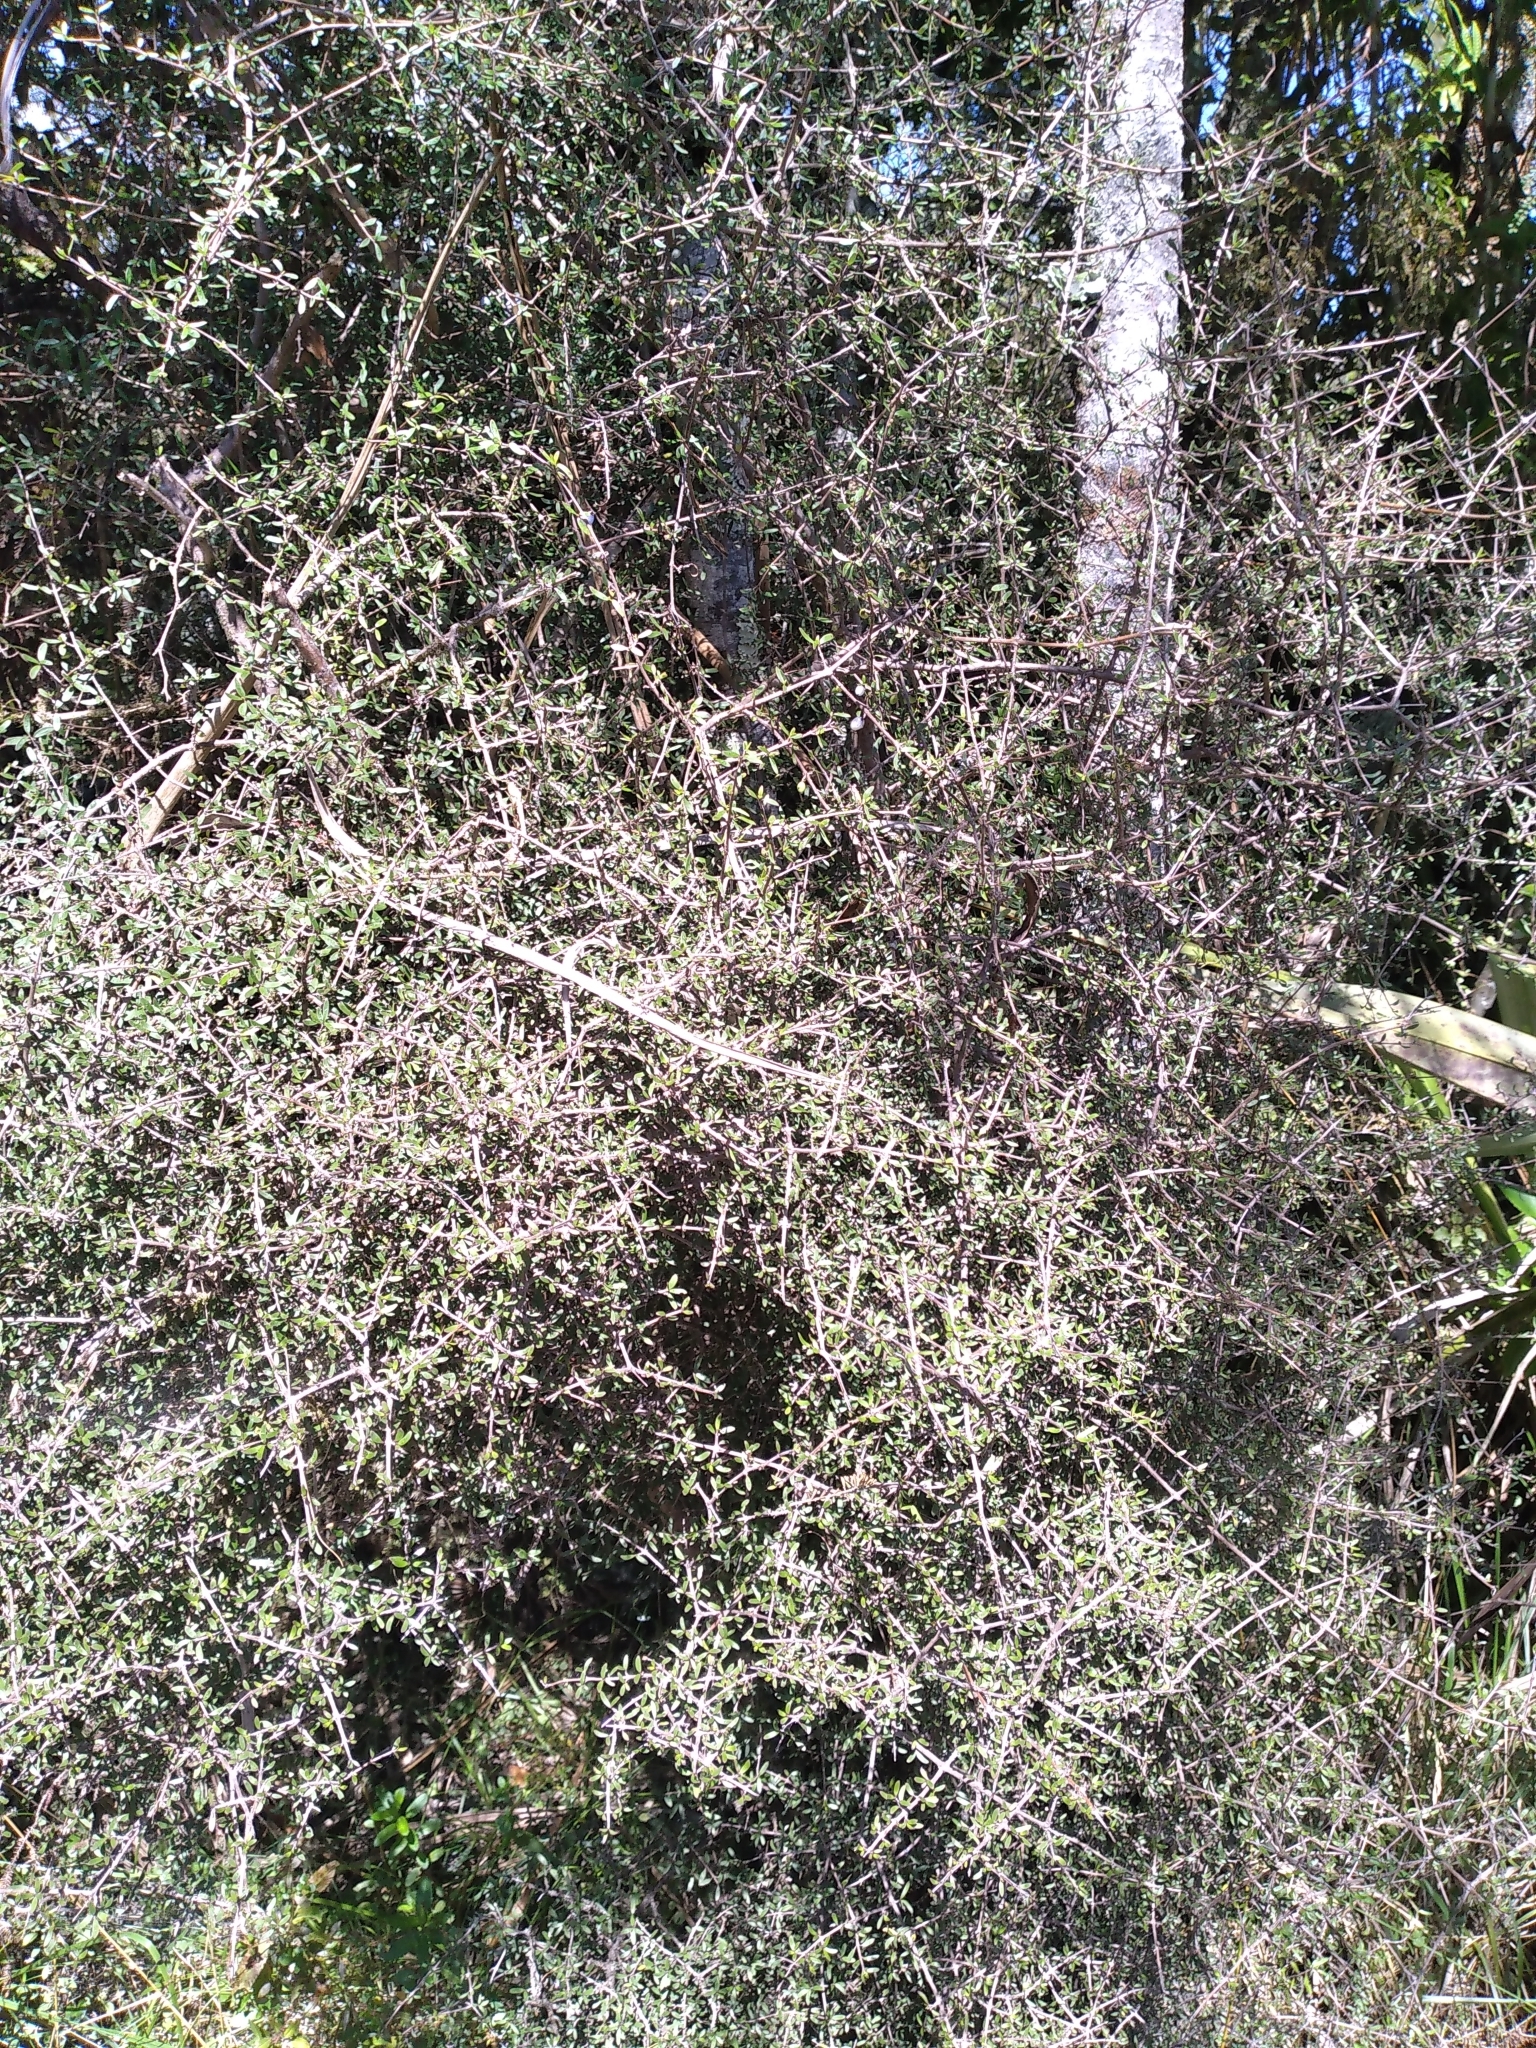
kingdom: Plantae
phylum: Tracheophyta
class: Magnoliopsida
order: Gentianales
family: Rubiaceae
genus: Coprosma
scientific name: Coprosma propinqua
